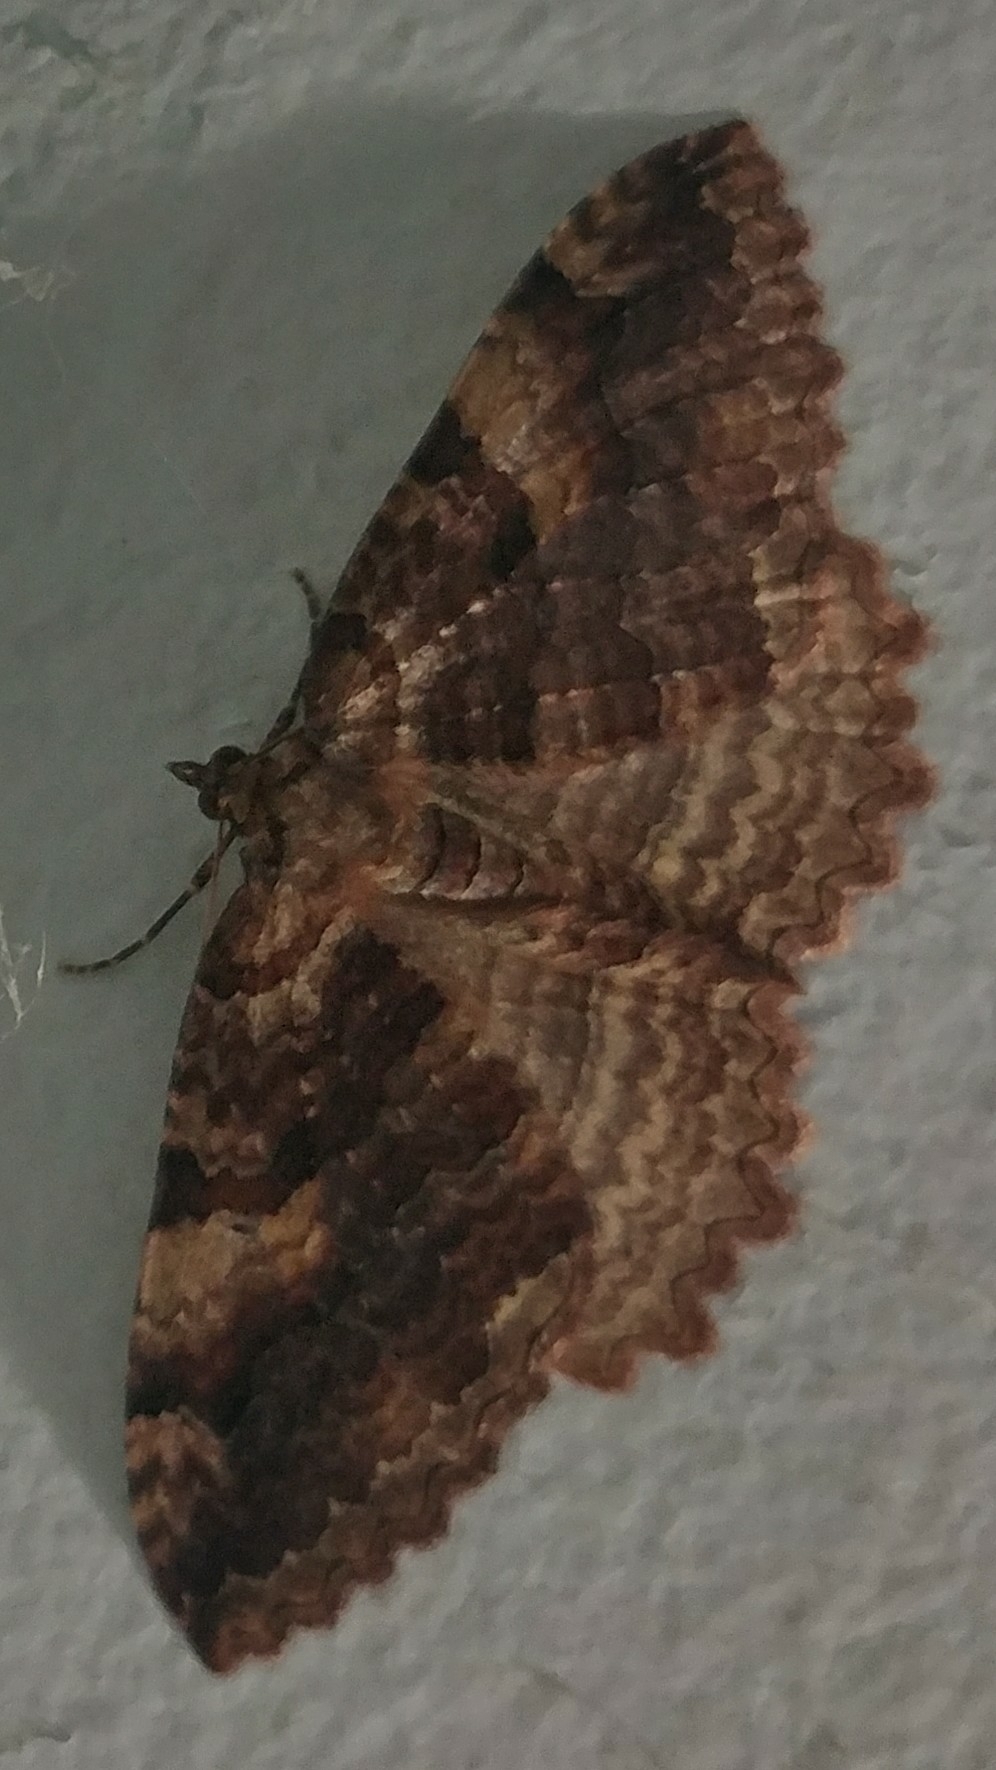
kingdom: Animalia
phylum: Arthropoda
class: Insecta
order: Lepidoptera
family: Geometridae
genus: Triphosa
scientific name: Triphosa haesitata
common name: Tissue moth
